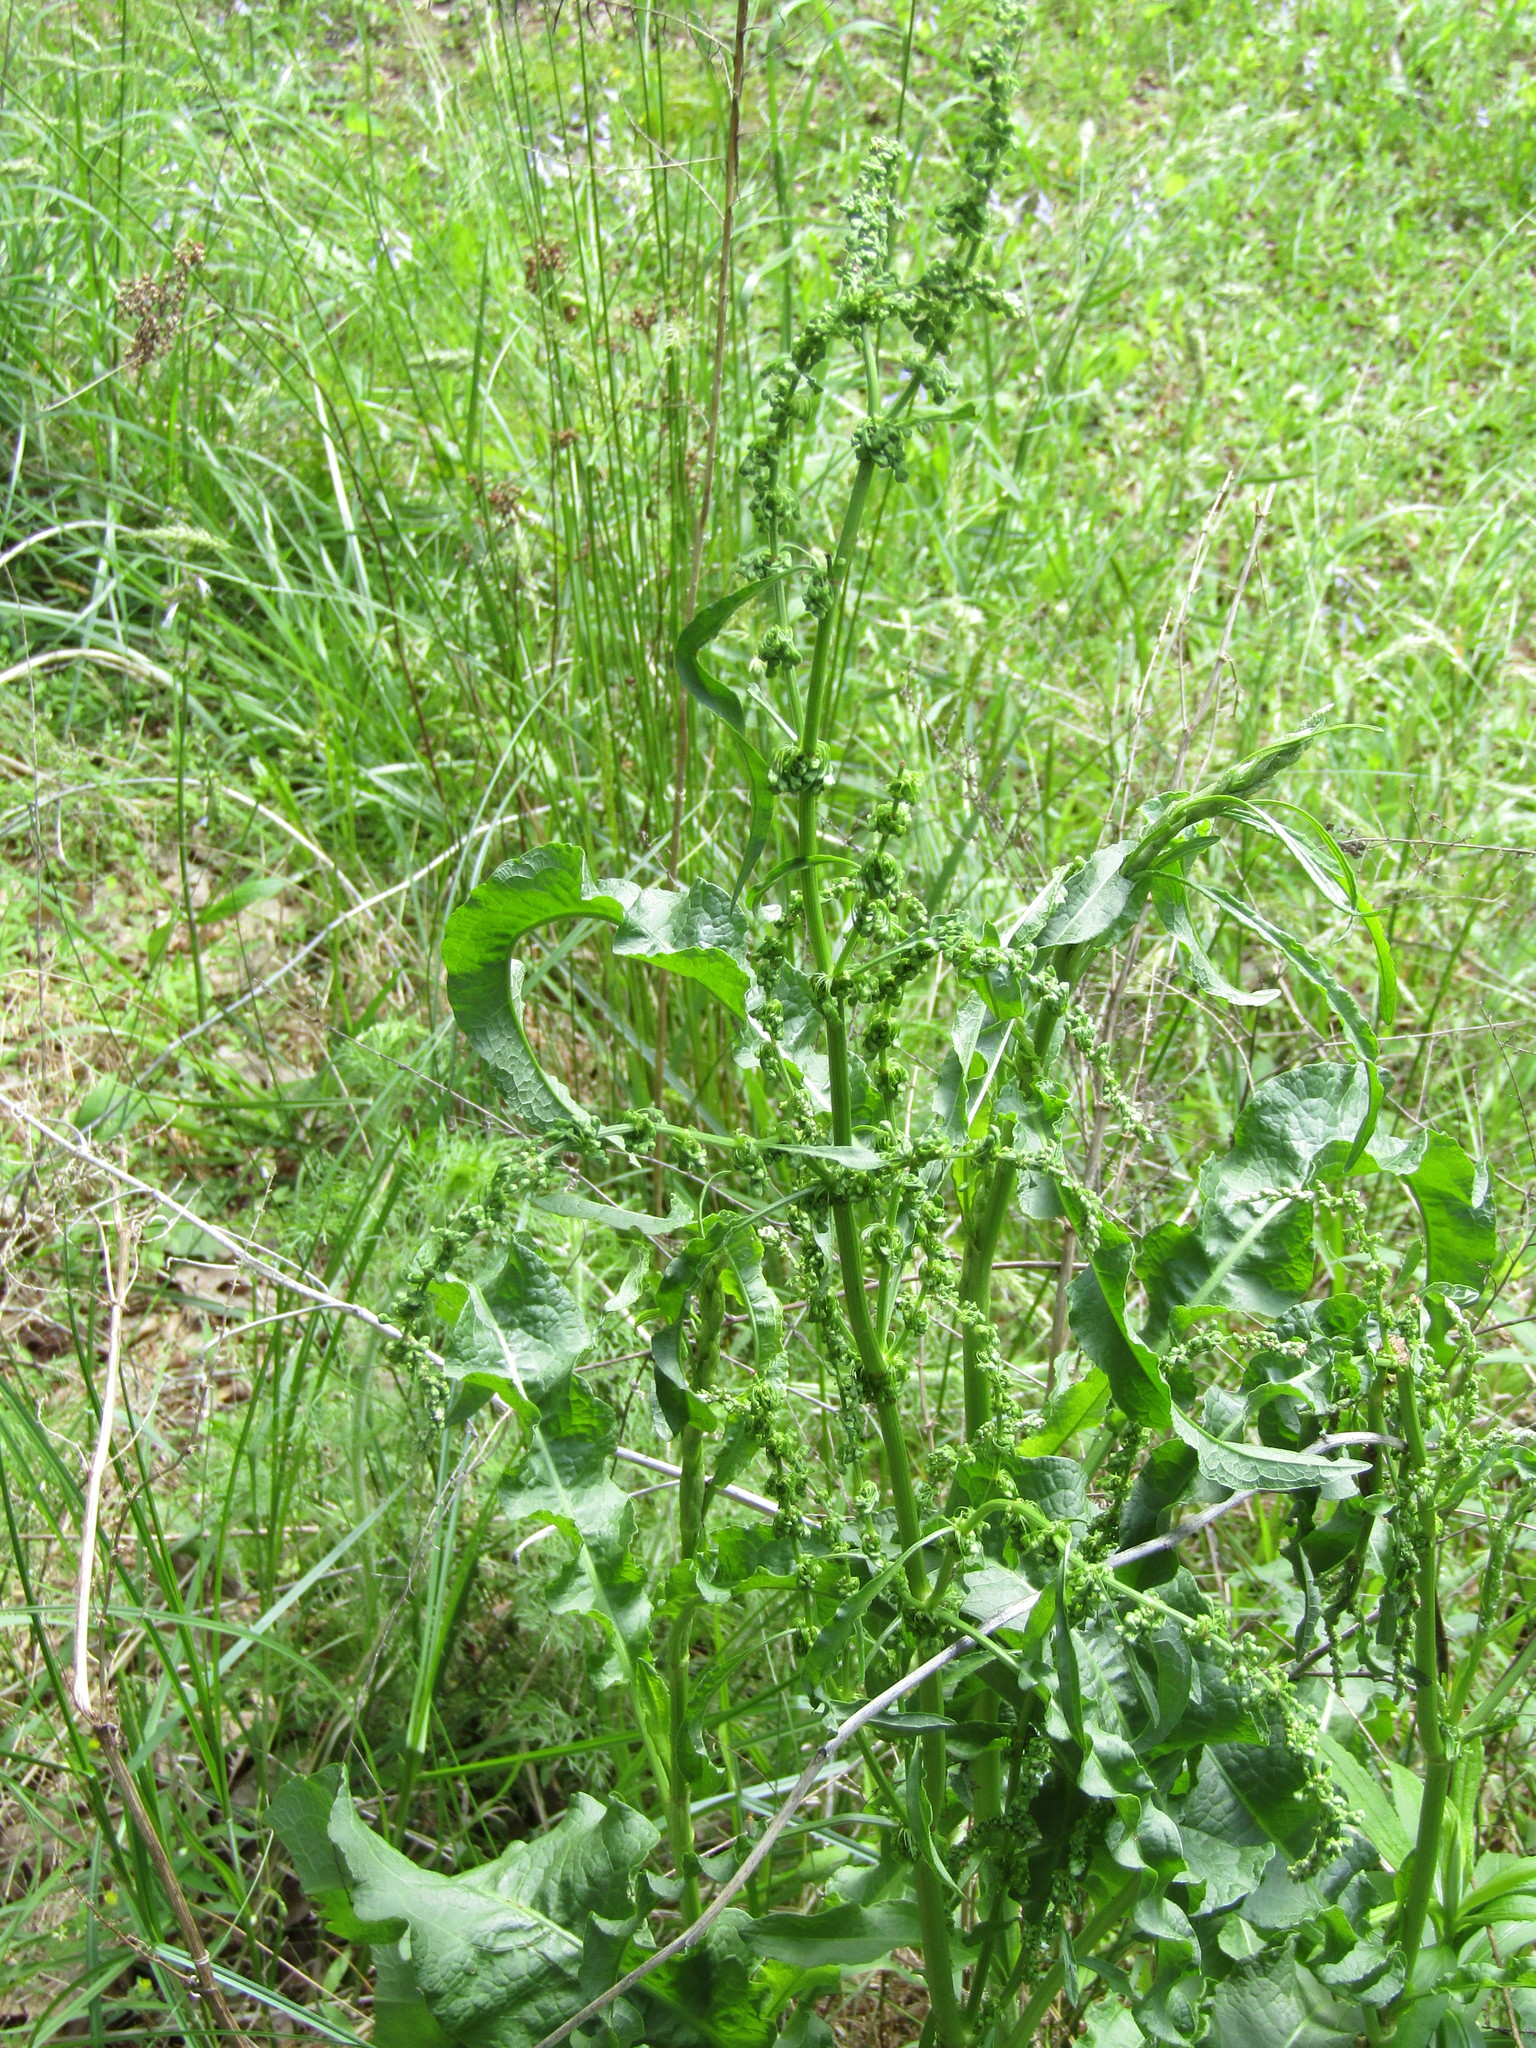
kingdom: Plantae
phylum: Tracheophyta
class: Magnoliopsida
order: Caryophyllales
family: Polygonaceae
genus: Rumex
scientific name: Rumex crispus
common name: Curled dock
